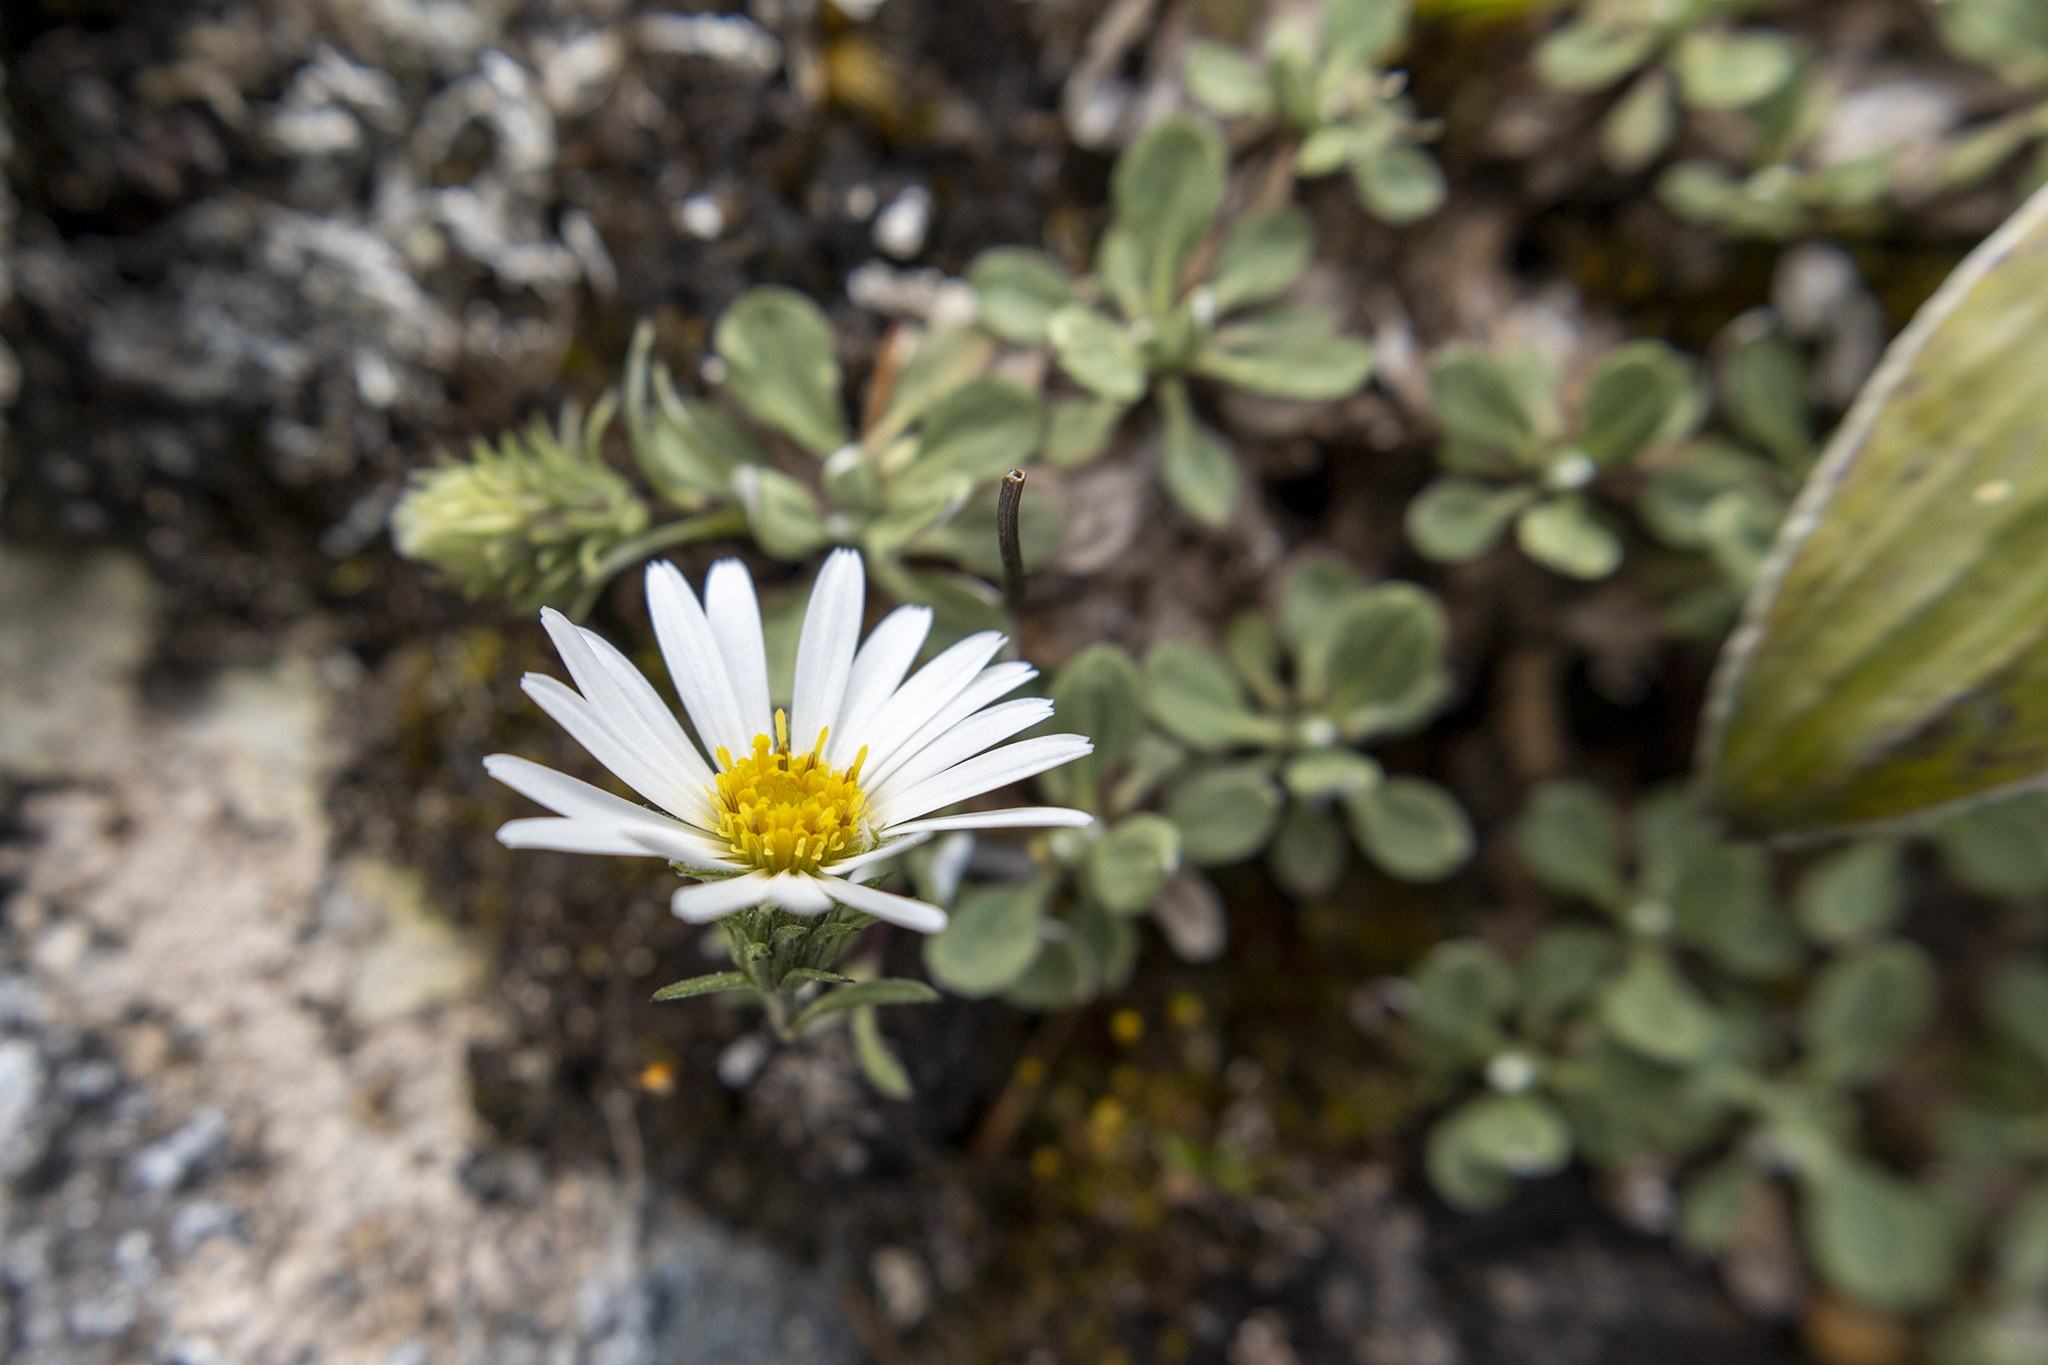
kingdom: Plantae
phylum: Tracheophyta
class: Magnoliopsida
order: Asterales
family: Asteraceae
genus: Celmisia
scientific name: Celmisia discolor
